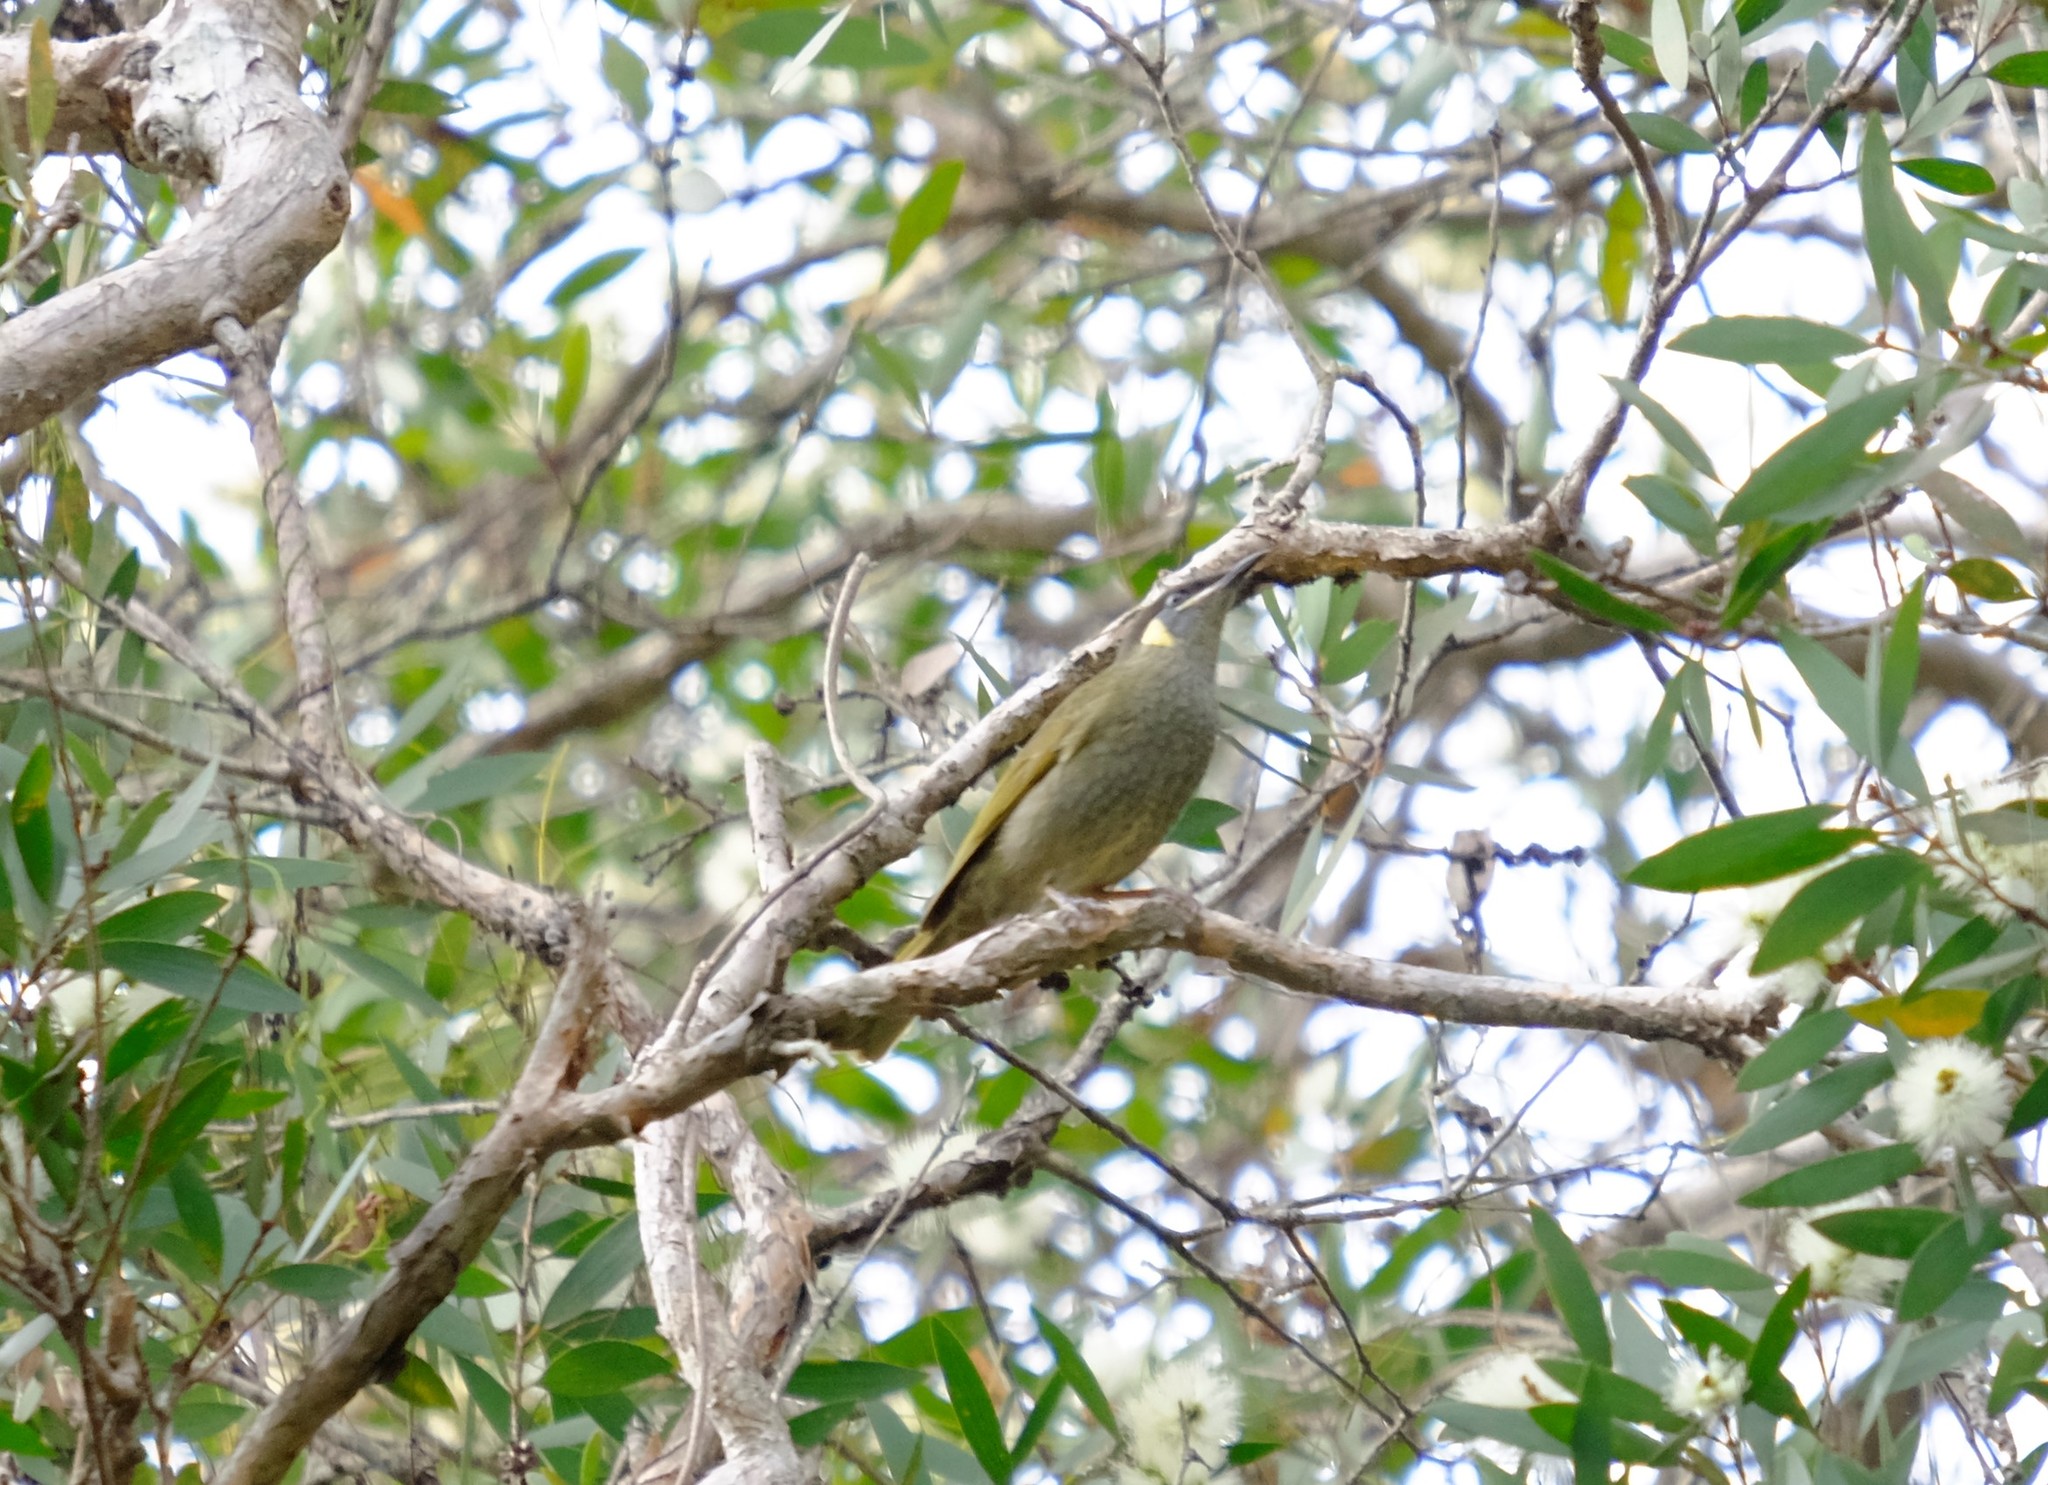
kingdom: Animalia
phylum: Chordata
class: Aves
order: Passeriformes
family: Meliphagidae
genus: Meliphaga
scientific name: Meliphaga lewinii
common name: Lewin's honeyeater
